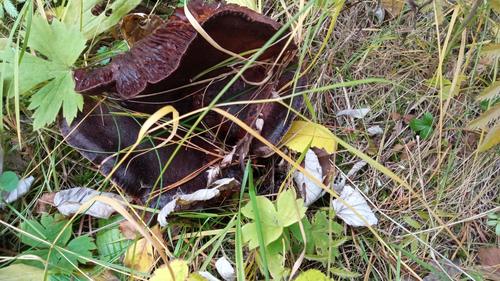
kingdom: Fungi
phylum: Basidiomycota
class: Agaricomycetes
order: Agaricales
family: Tricholomataceae
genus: Tricholoma
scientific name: Tricholoma
